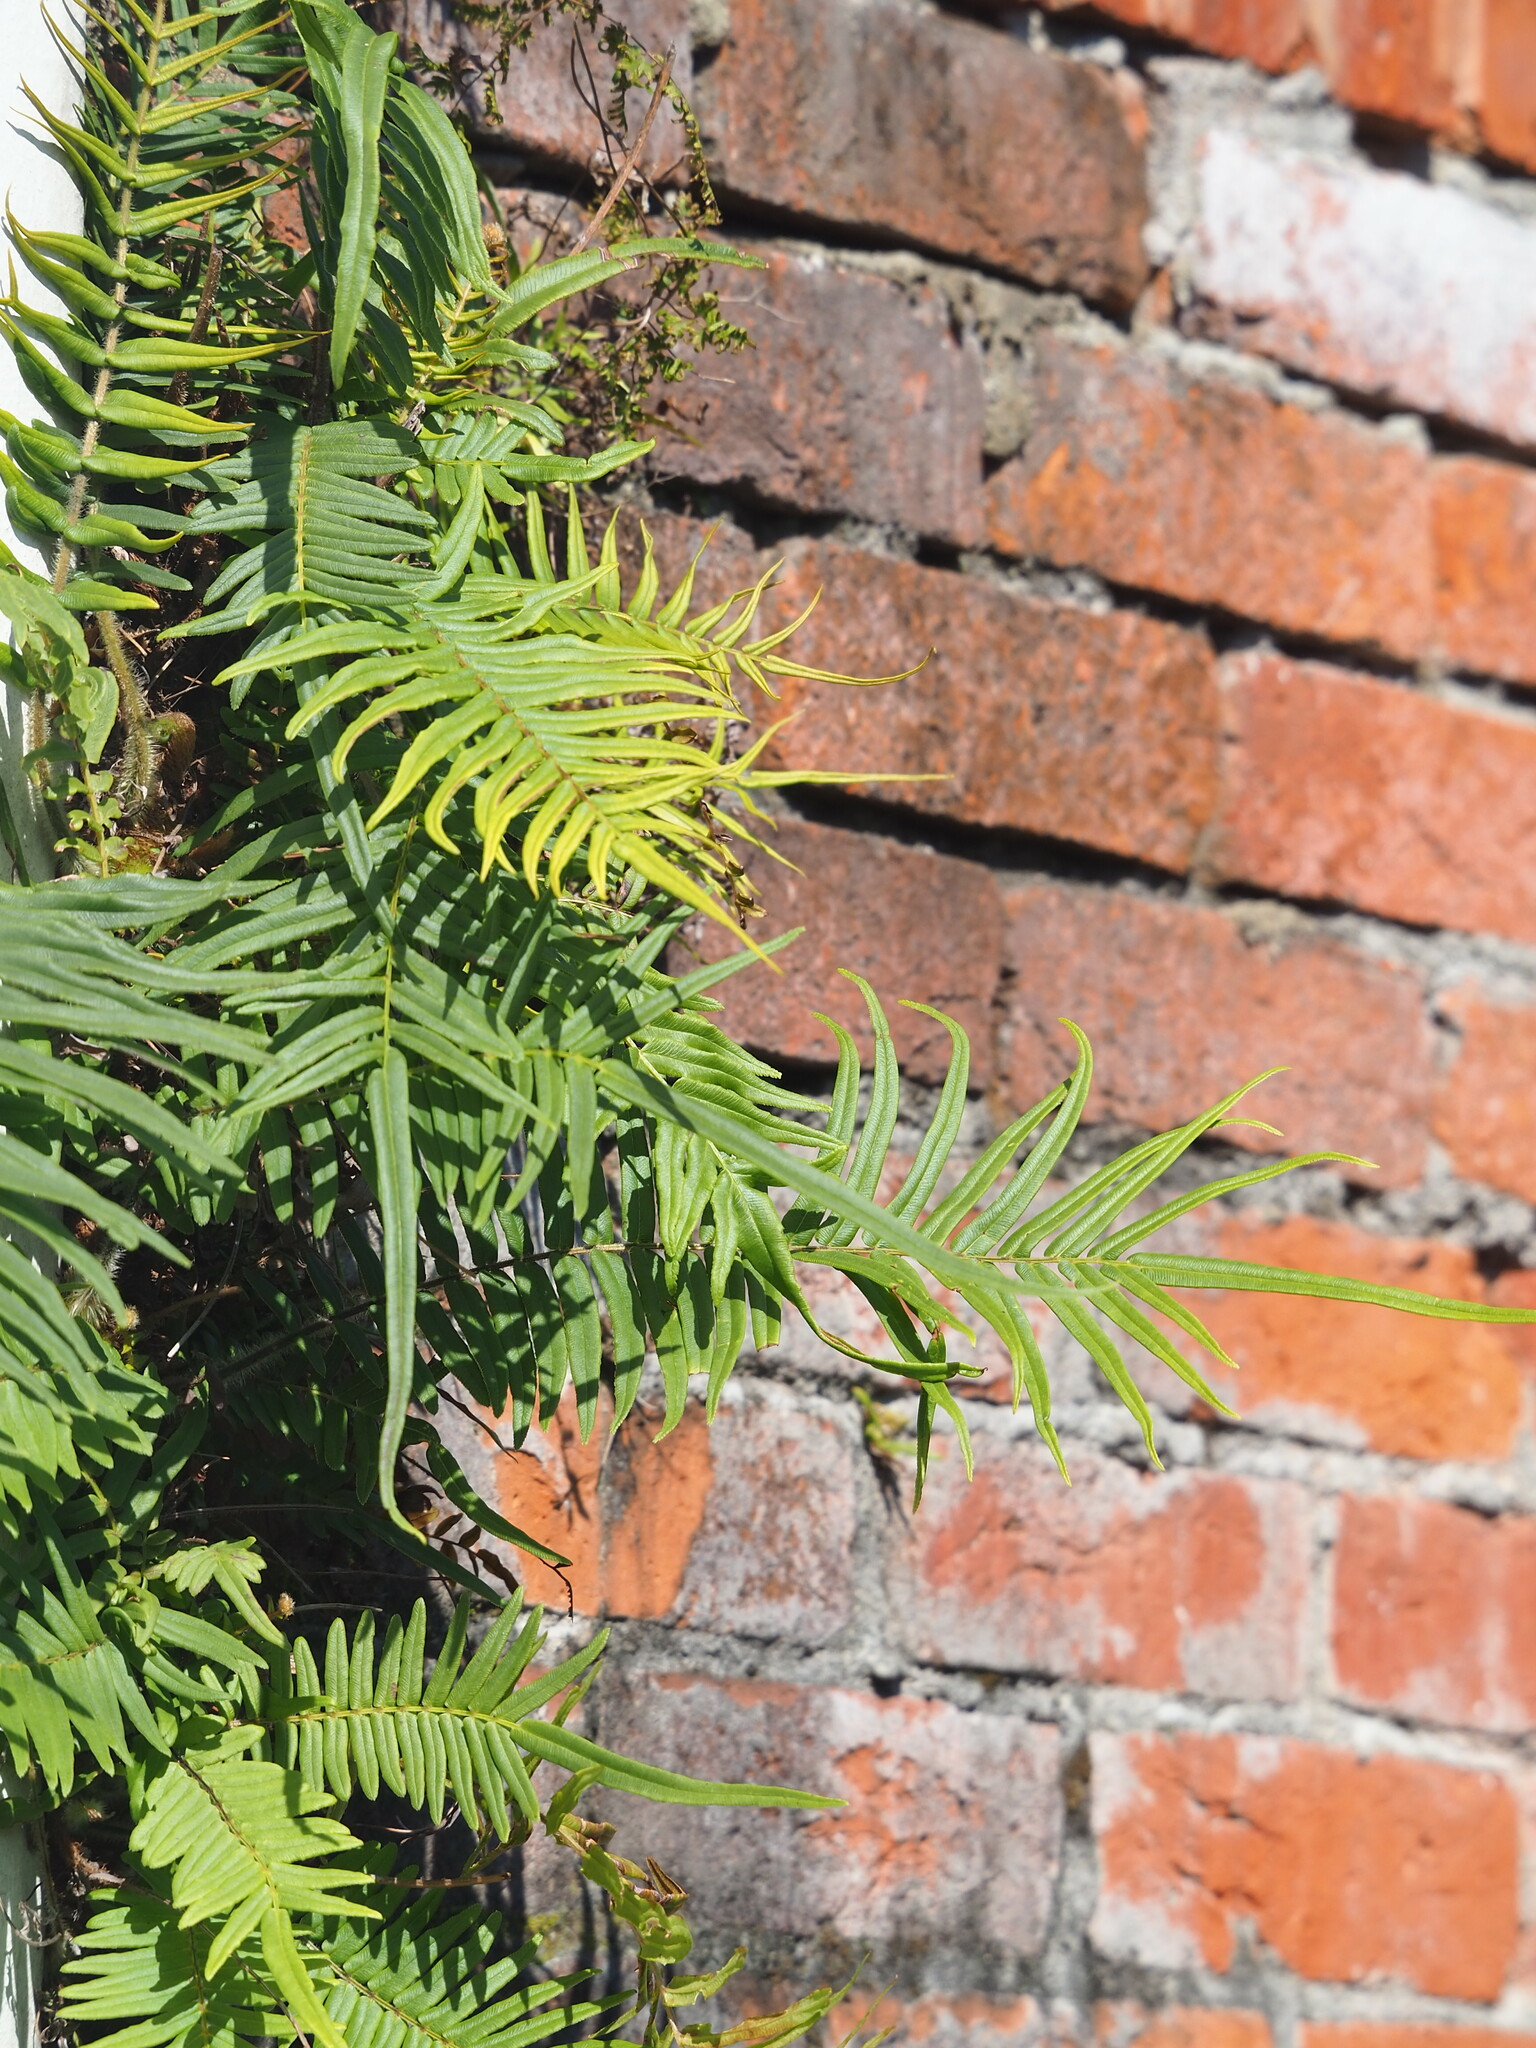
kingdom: Plantae
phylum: Tracheophyta
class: Polypodiopsida
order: Polypodiales
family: Pteridaceae
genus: Pteris
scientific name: Pteris vittata
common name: Ladder brake
